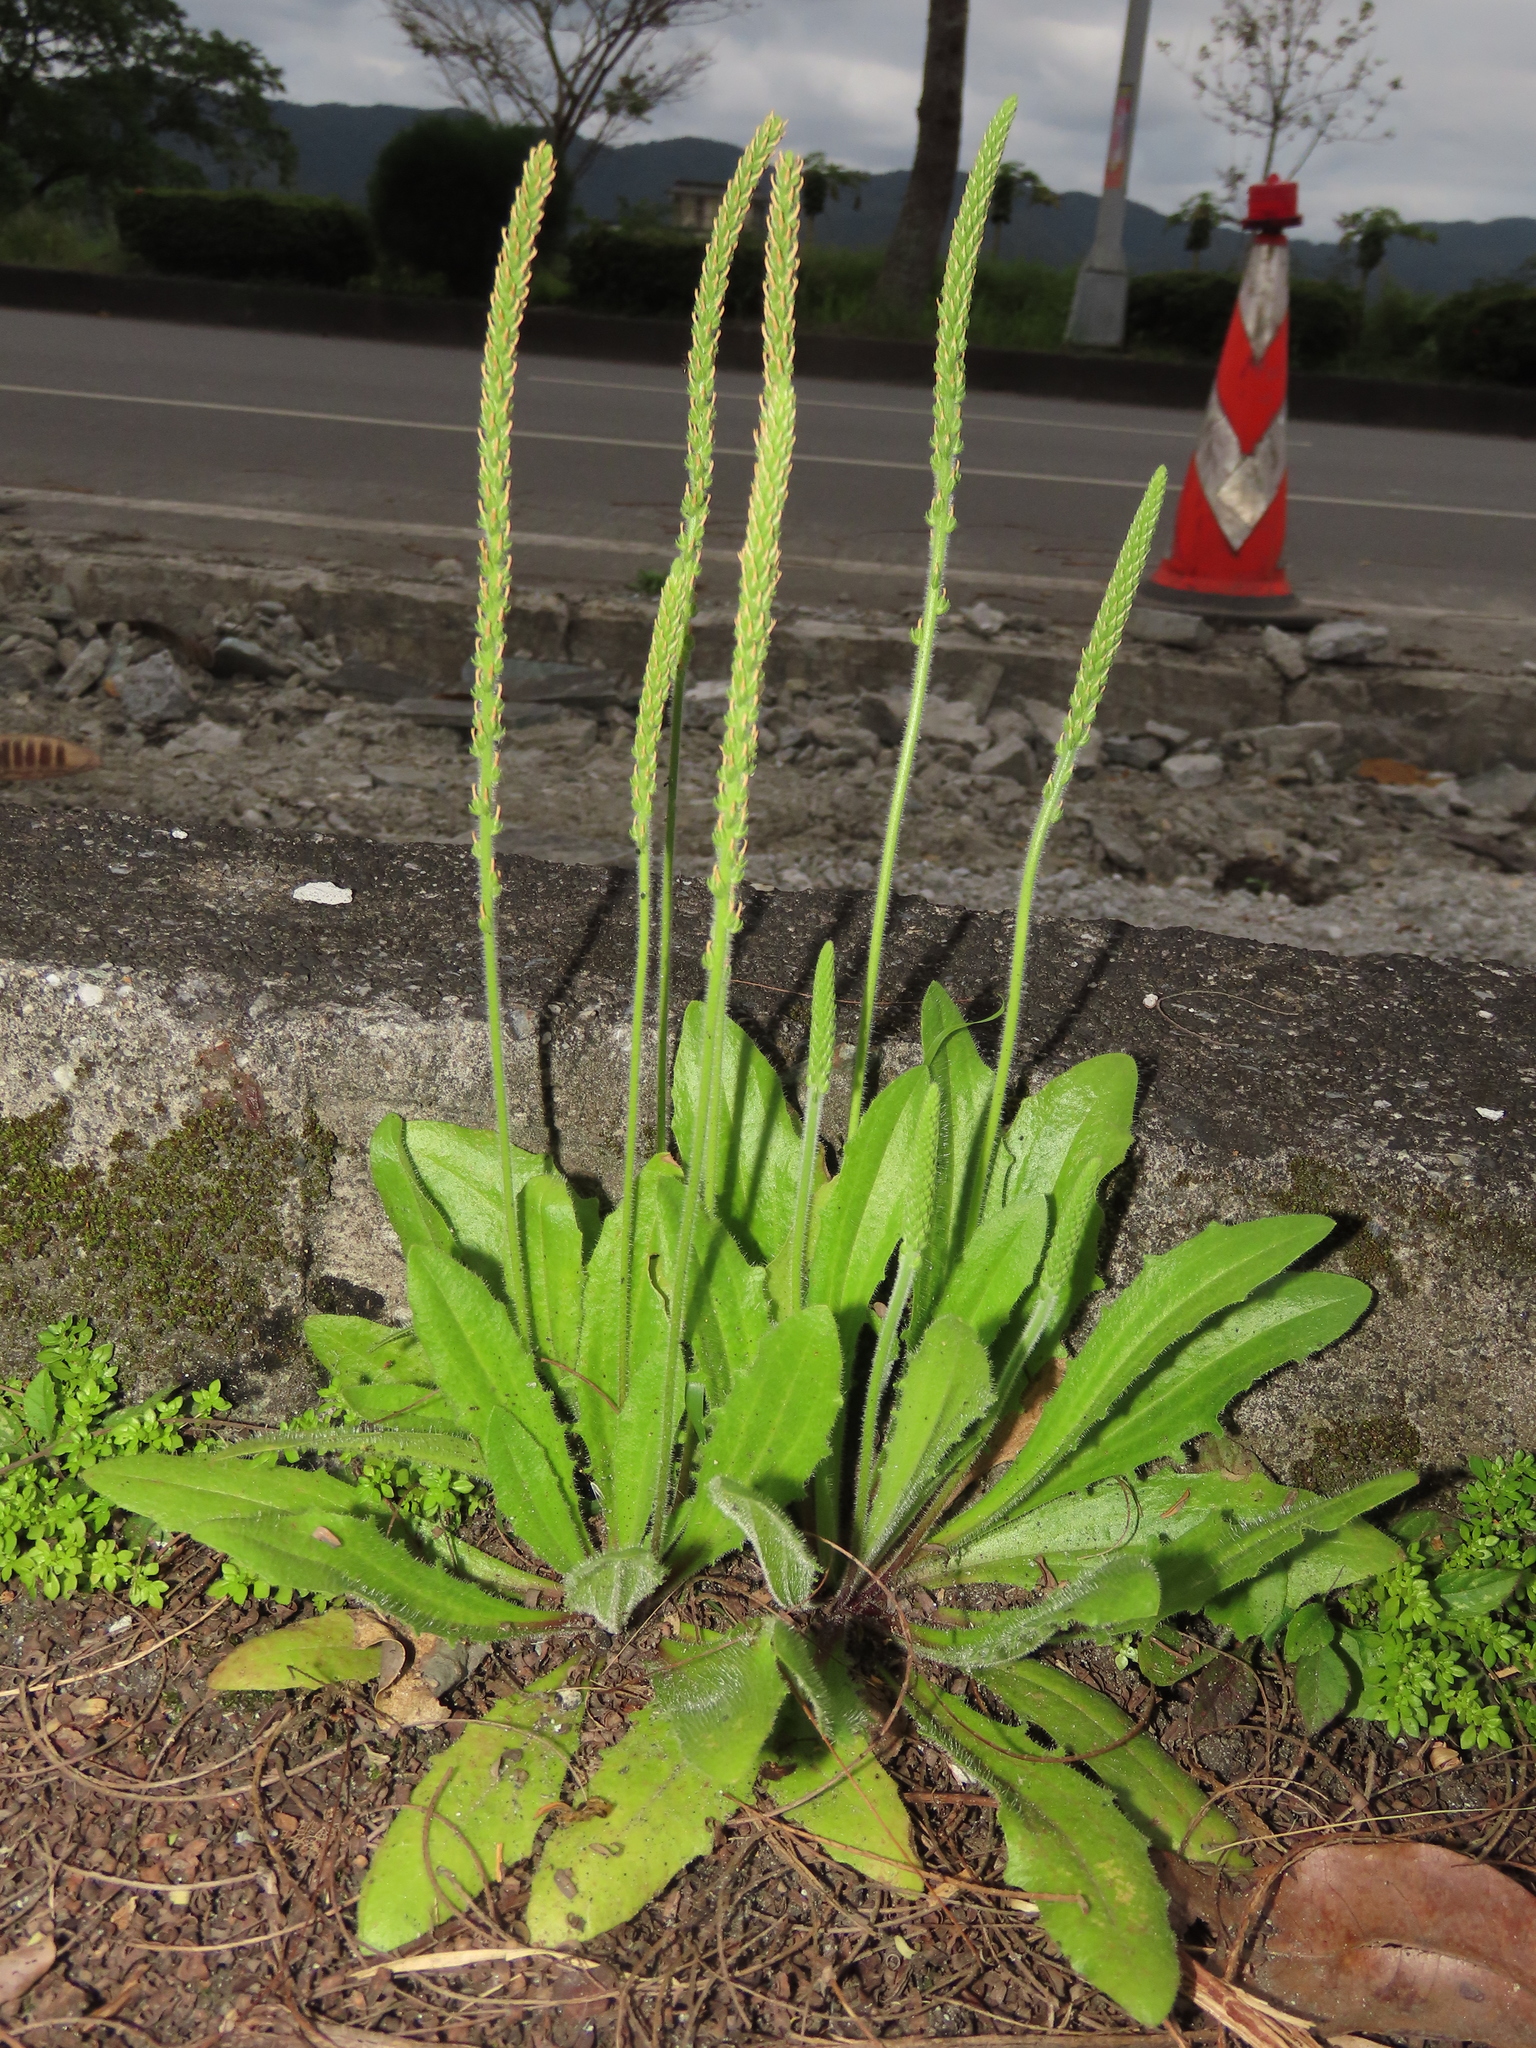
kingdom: Plantae
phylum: Tracheophyta
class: Magnoliopsida
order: Lamiales
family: Plantaginaceae
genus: Plantago
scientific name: Plantago virginica
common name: Hoary plantain
